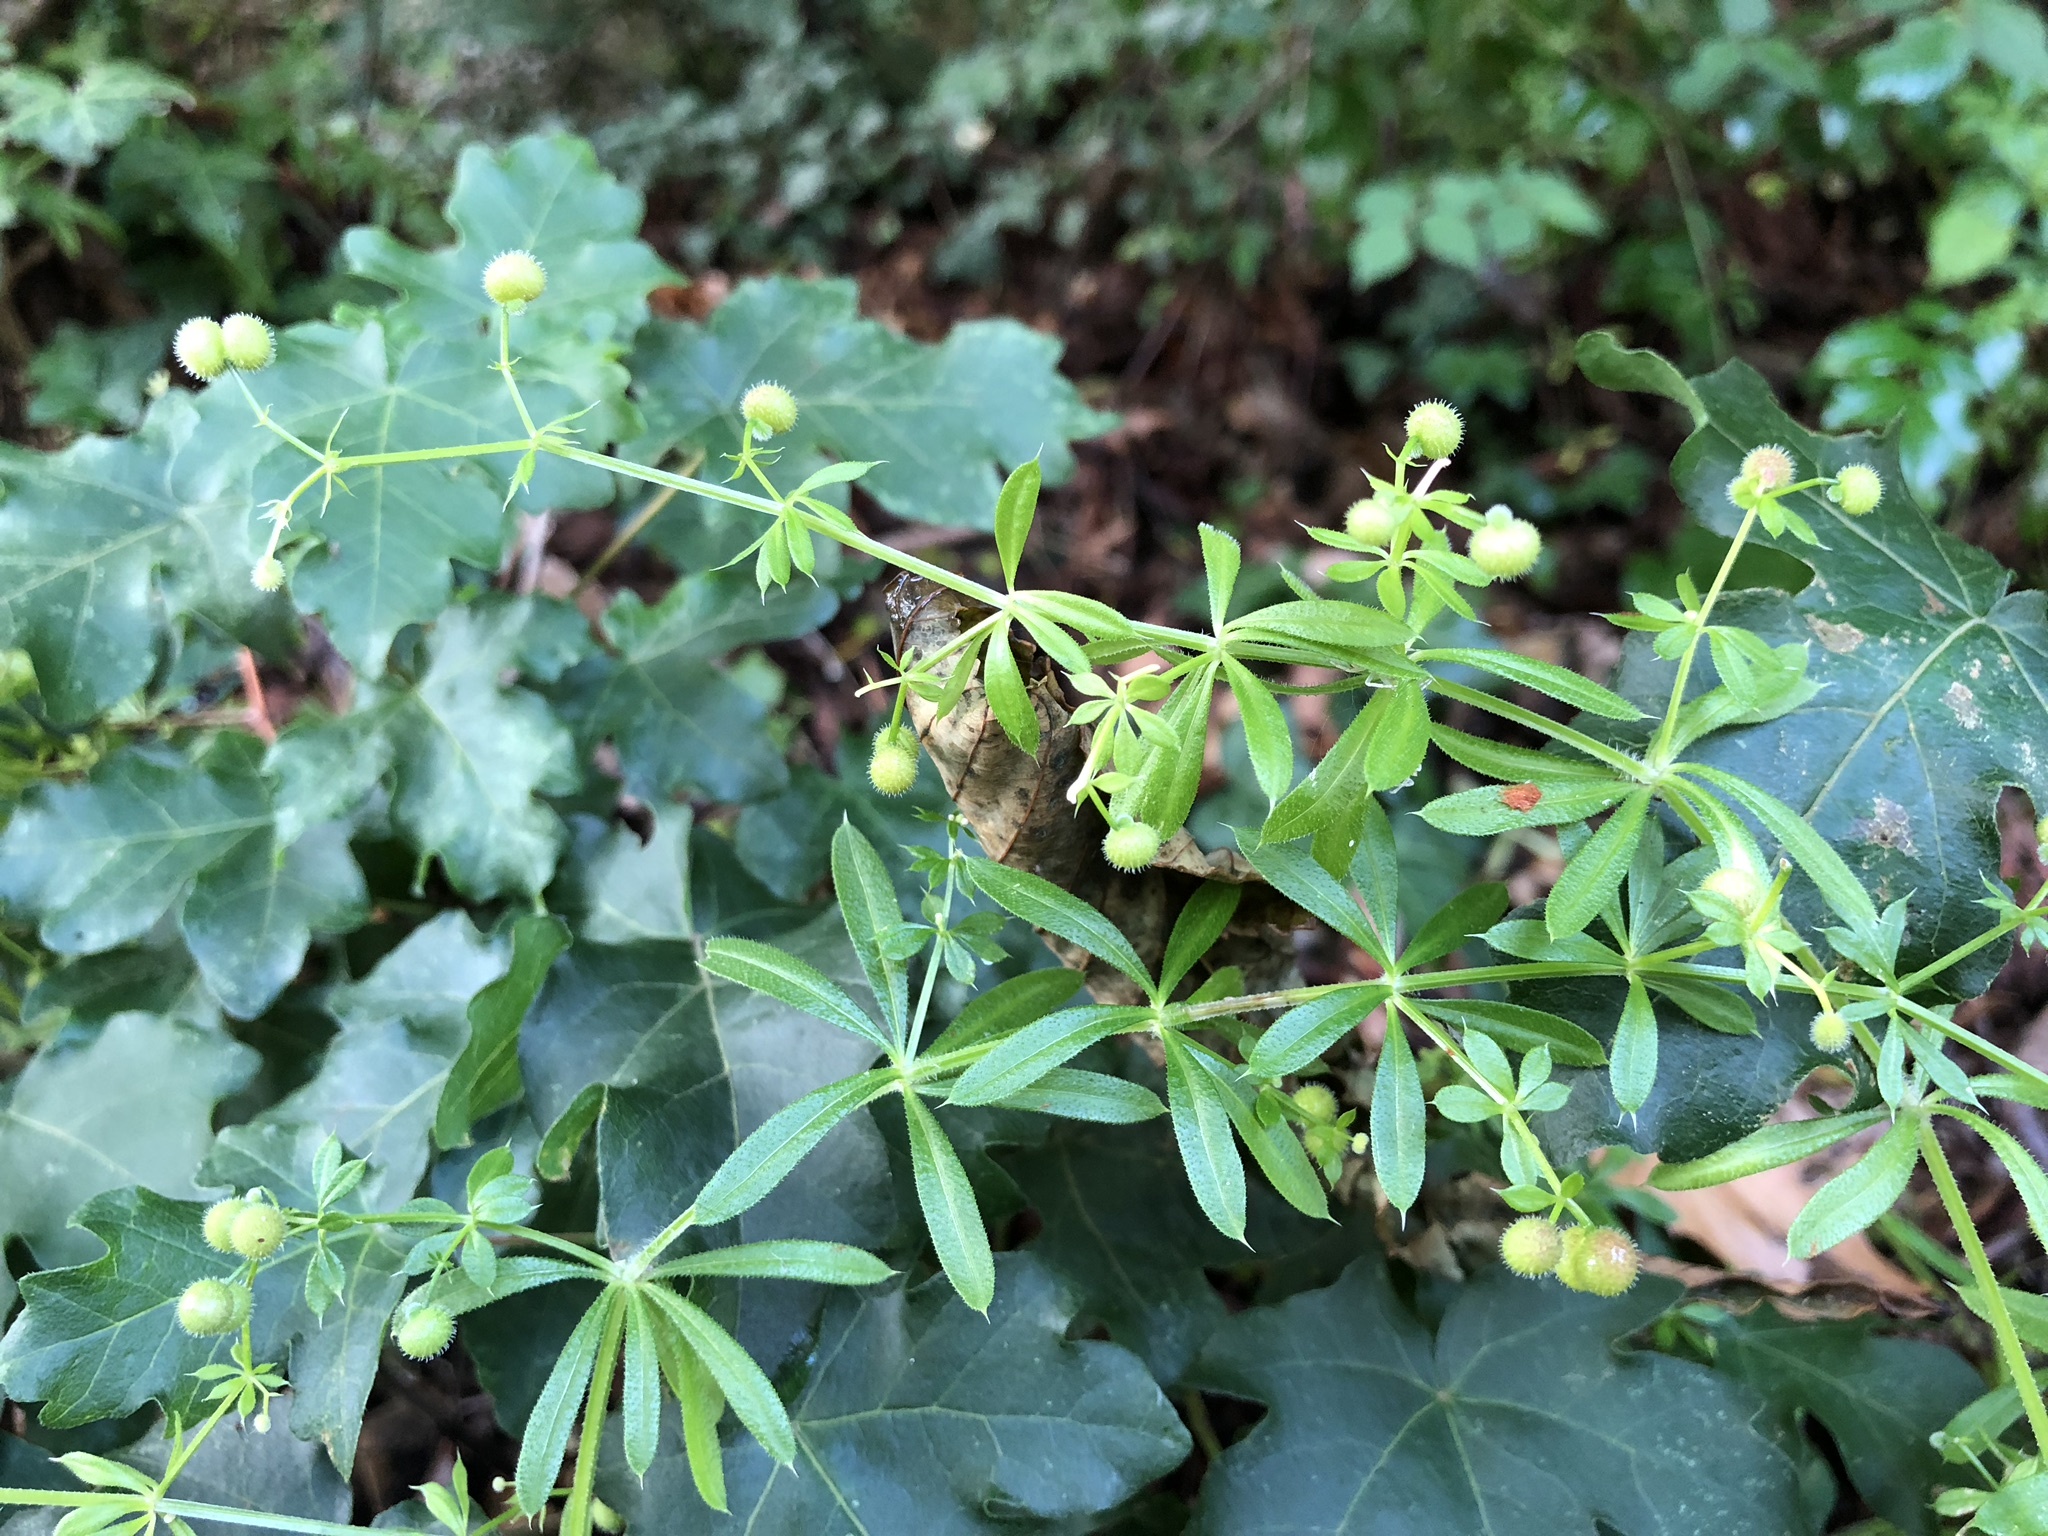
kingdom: Plantae
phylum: Tracheophyta
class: Magnoliopsida
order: Gentianales
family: Rubiaceae
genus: Galium
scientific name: Galium aparine
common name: Cleavers
